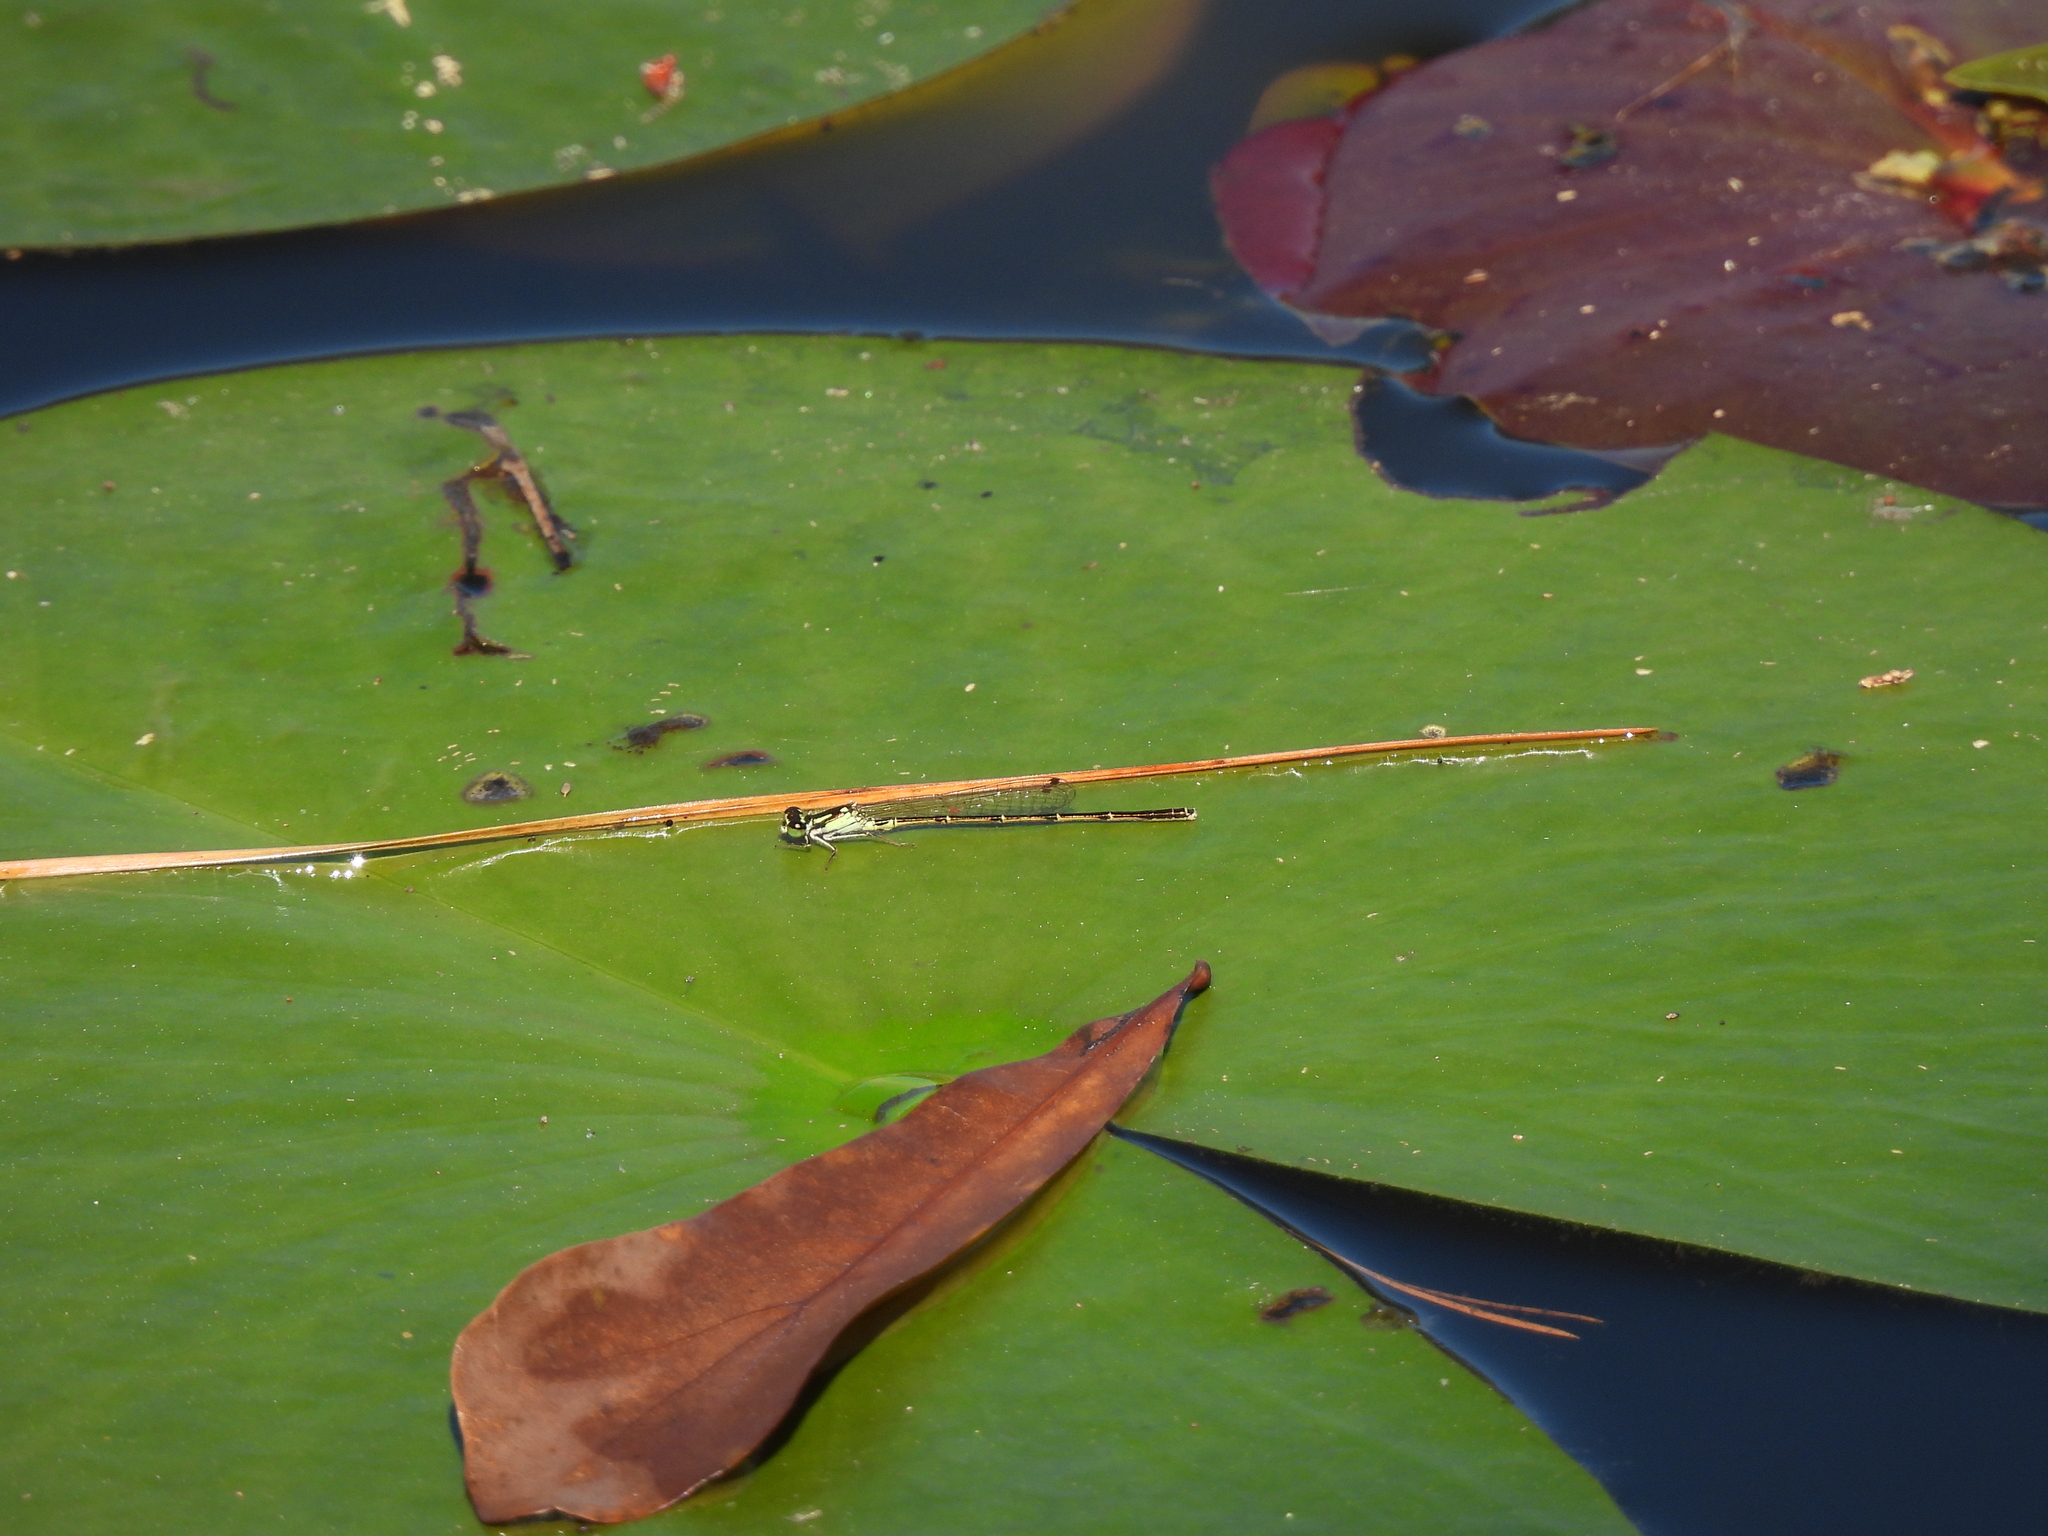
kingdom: Animalia
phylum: Arthropoda
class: Insecta
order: Odonata
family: Coenagrionidae
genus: Ischnura
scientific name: Ischnura posita
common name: Fragile forktail
